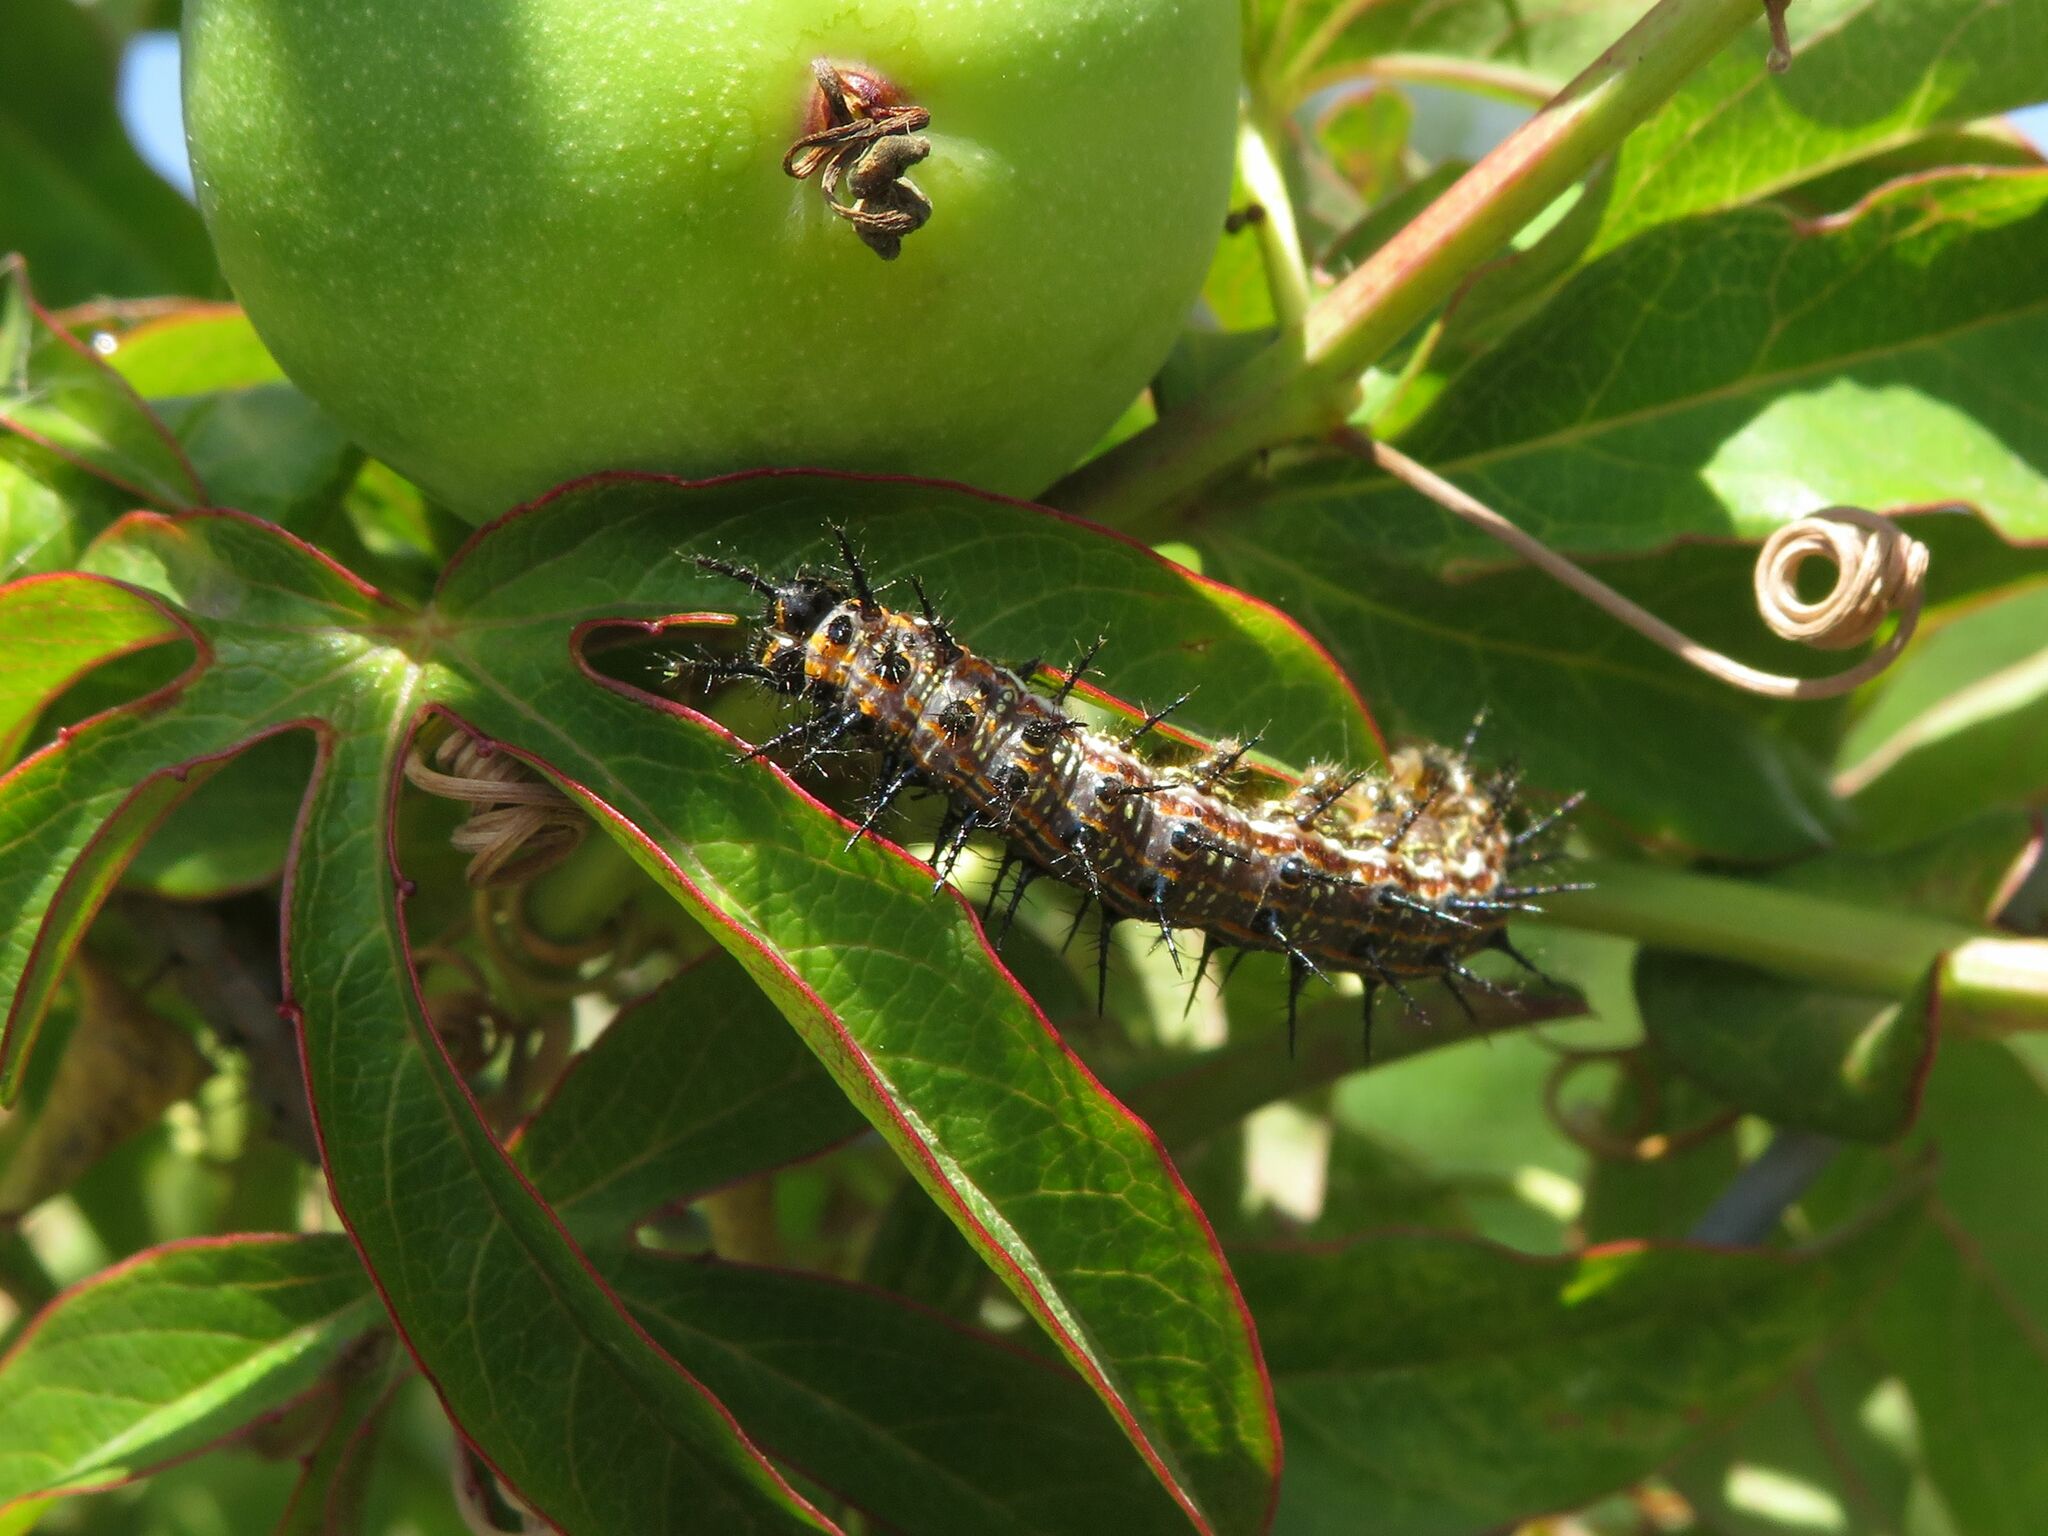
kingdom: Animalia
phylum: Arthropoda
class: Insecta
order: Lepidoptera
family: Nymphalidae
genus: Dione
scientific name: Dione vanillae
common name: Gulf fritillary
